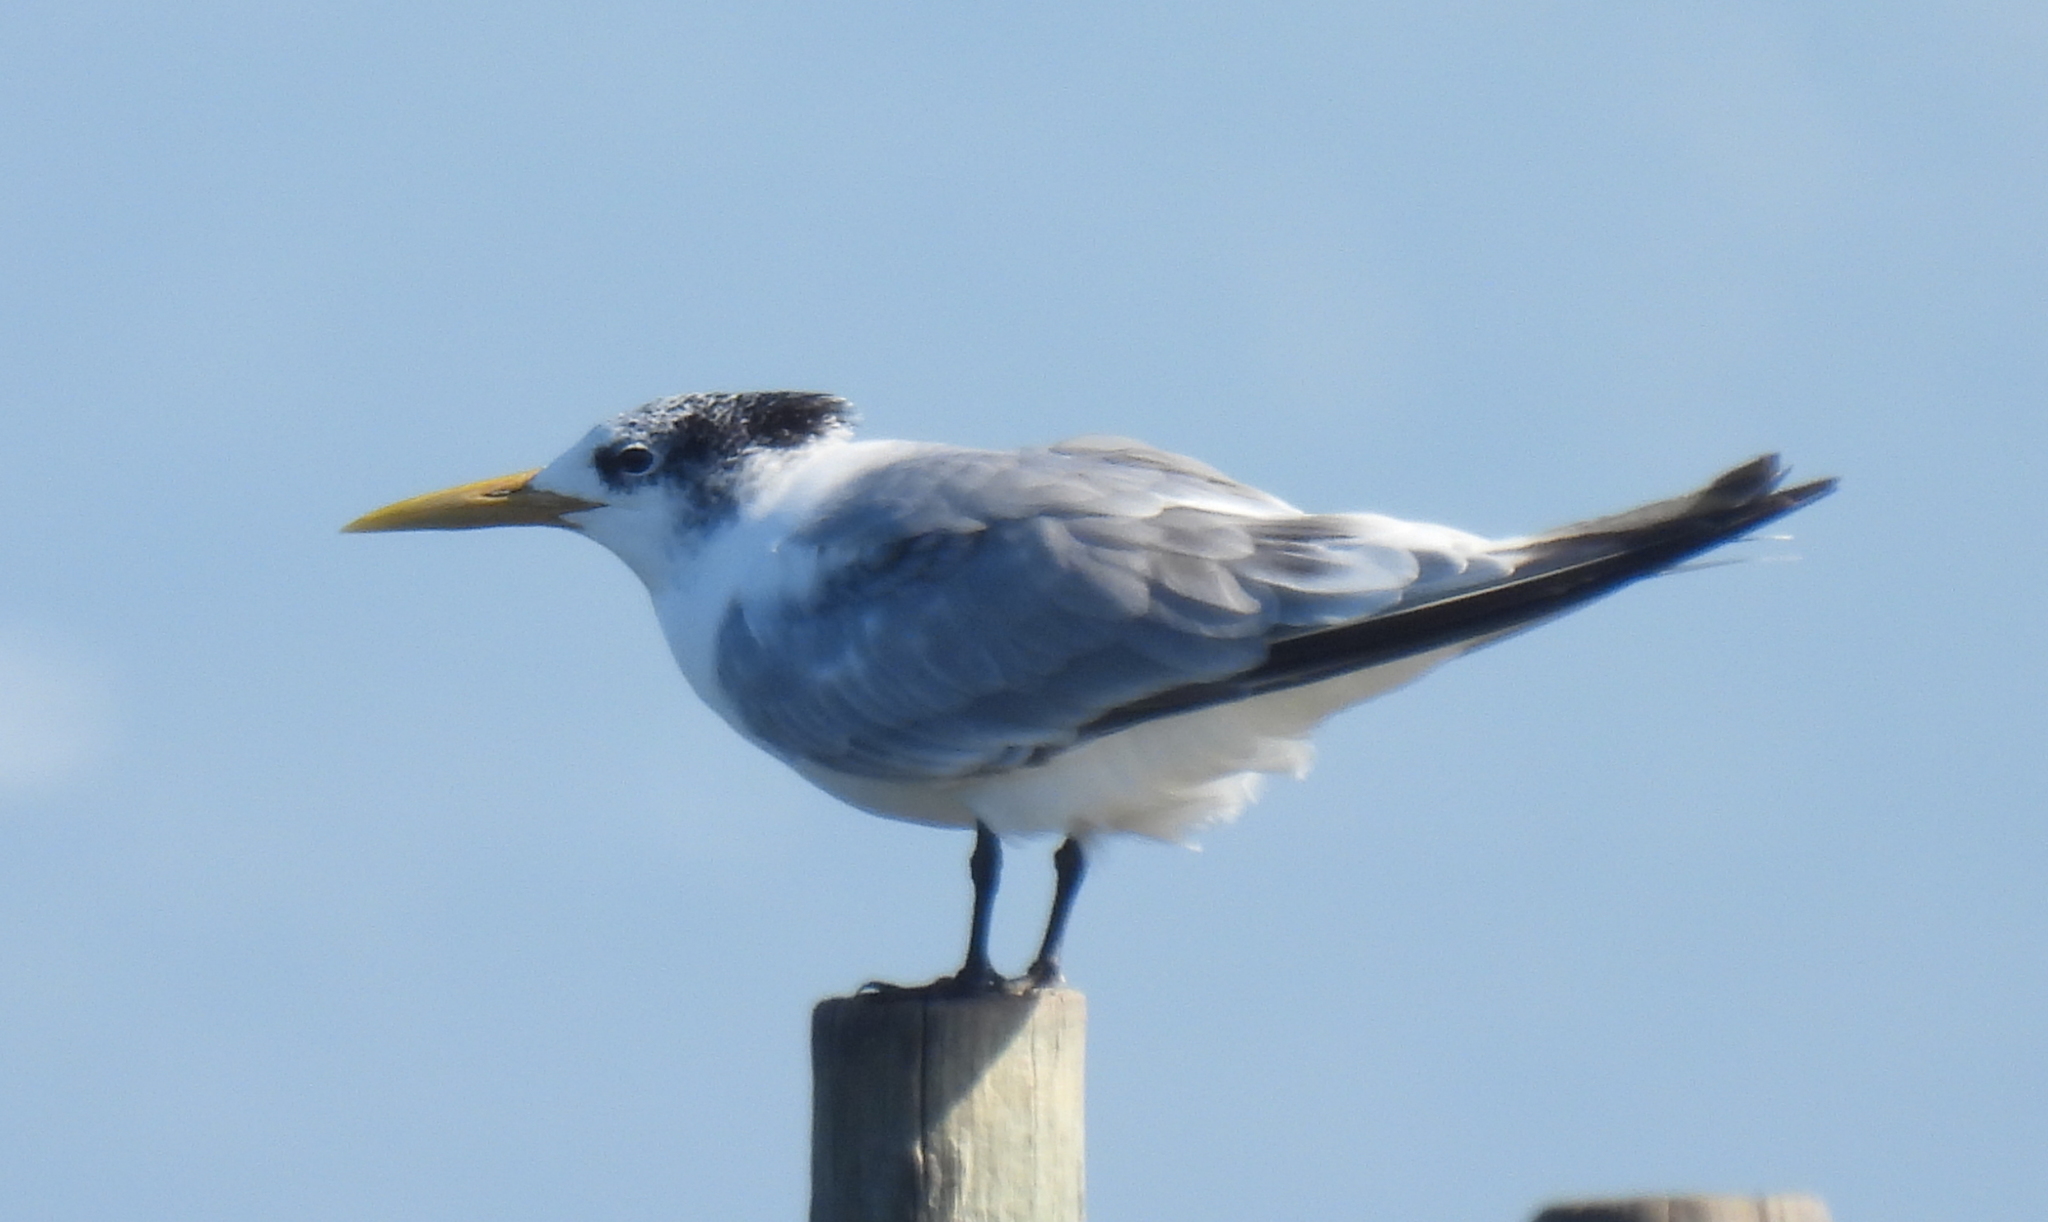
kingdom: Animalia
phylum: Chordata
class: Aves
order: Charadriiformes
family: Laridae
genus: Thalasseus
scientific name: Thalasseus bergii
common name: Greater crested tern
